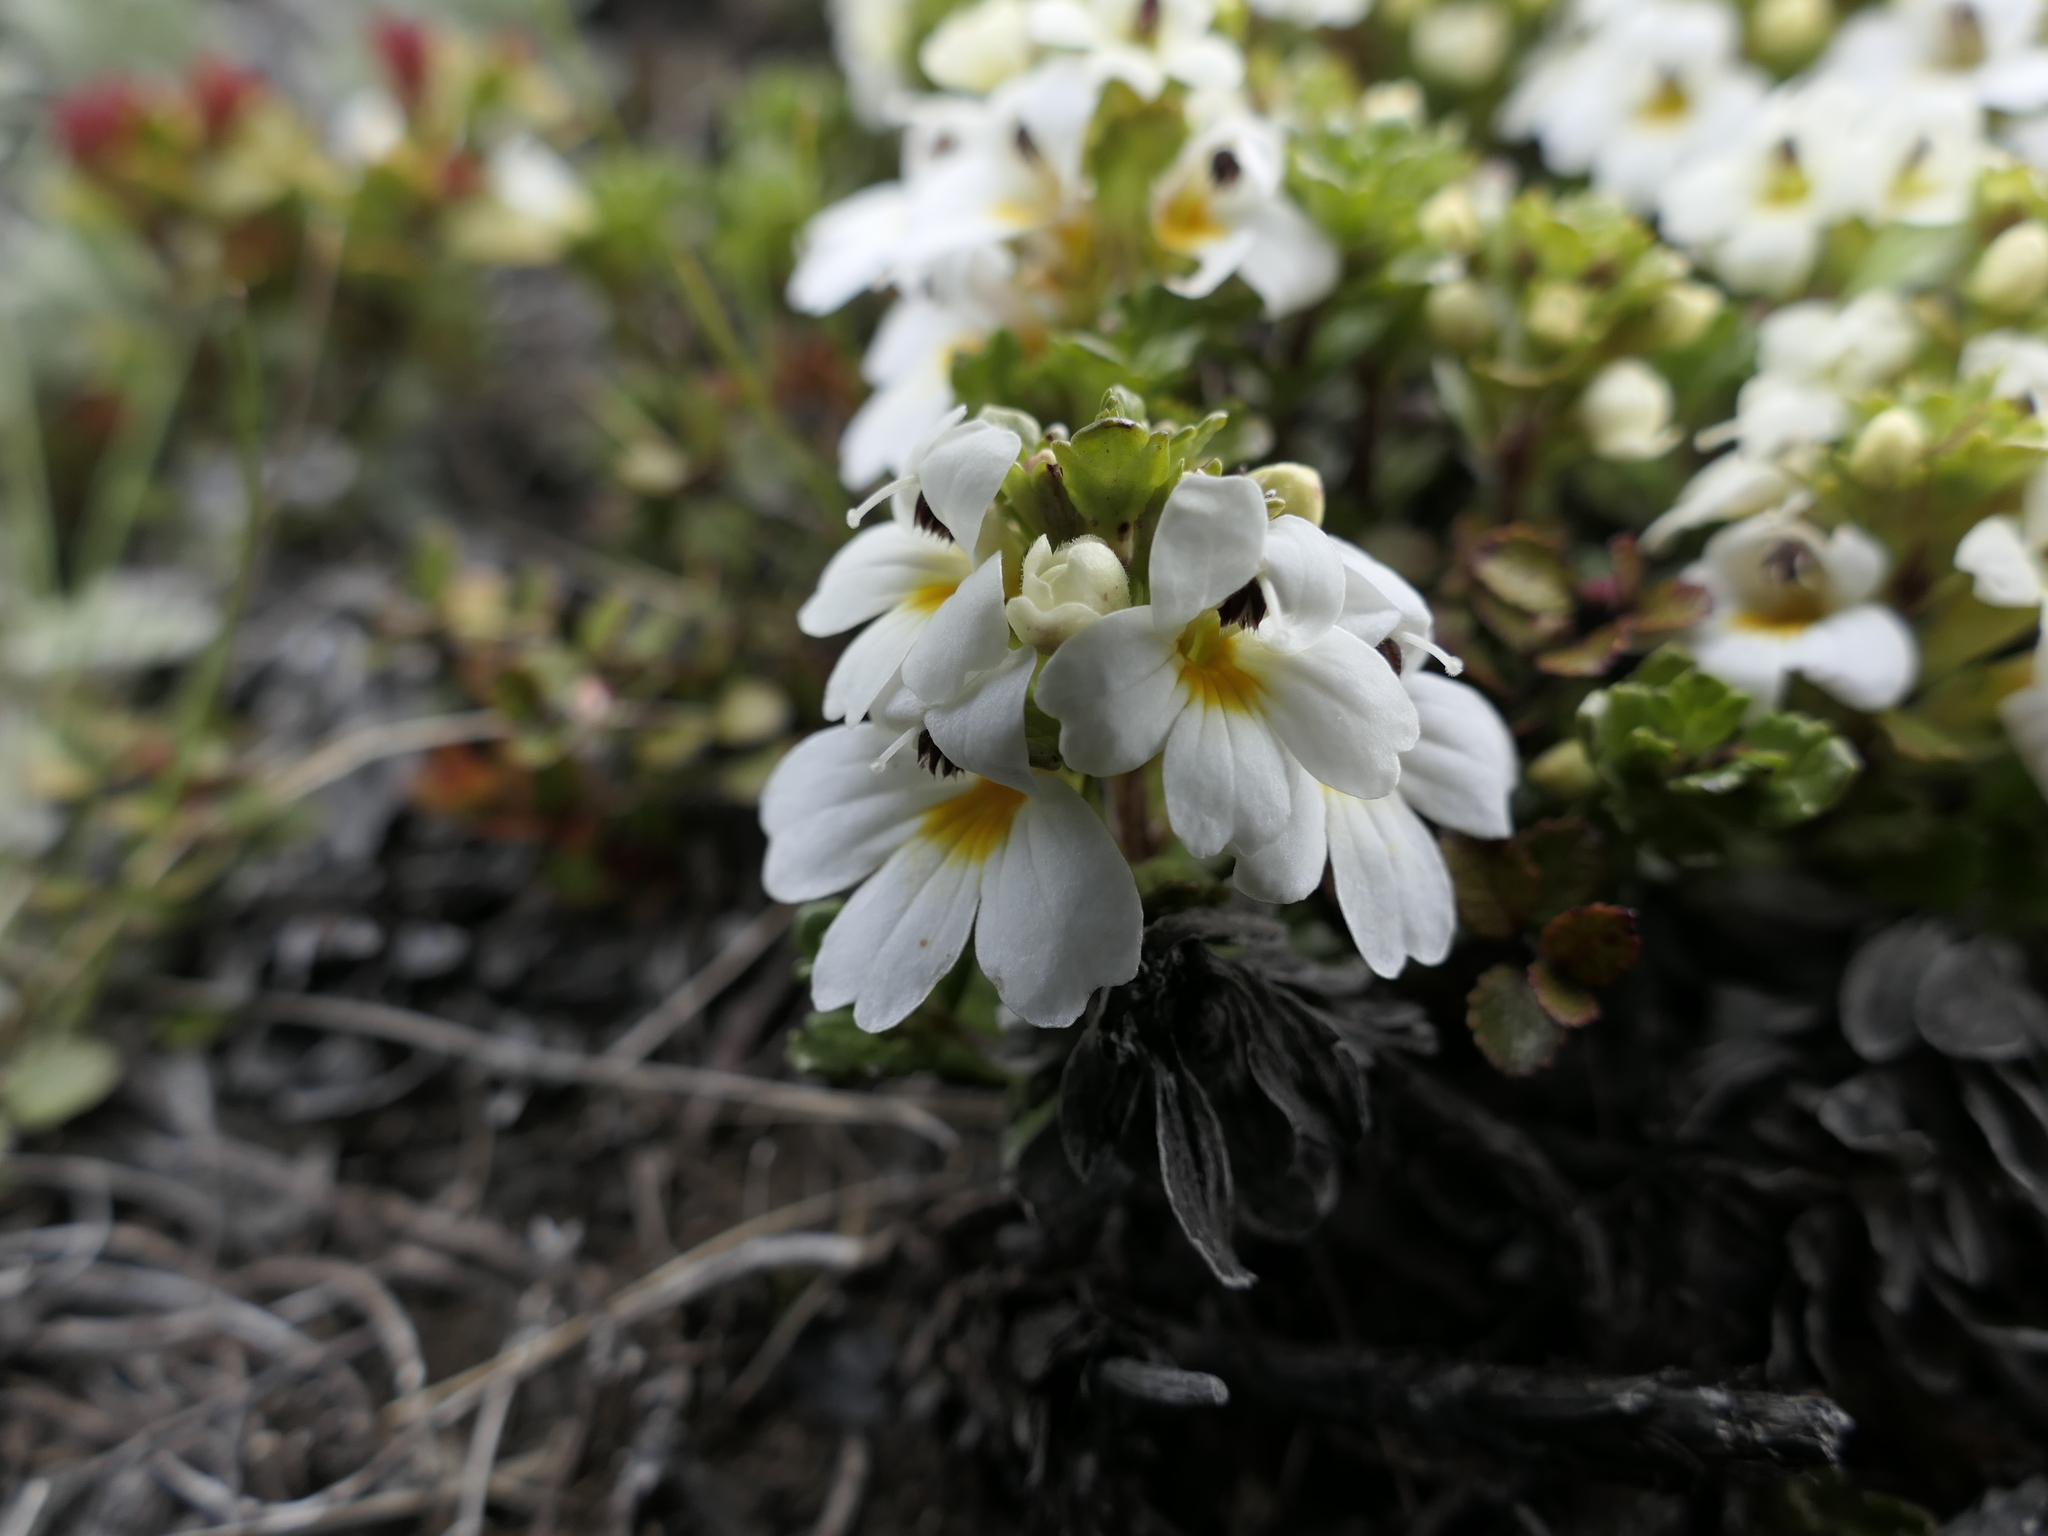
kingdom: Plantae
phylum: Tracheophyta
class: Magnoliopsida
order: Lamiales
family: Orobanchaceae
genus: Euphrasia
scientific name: Euphrasia monroi
